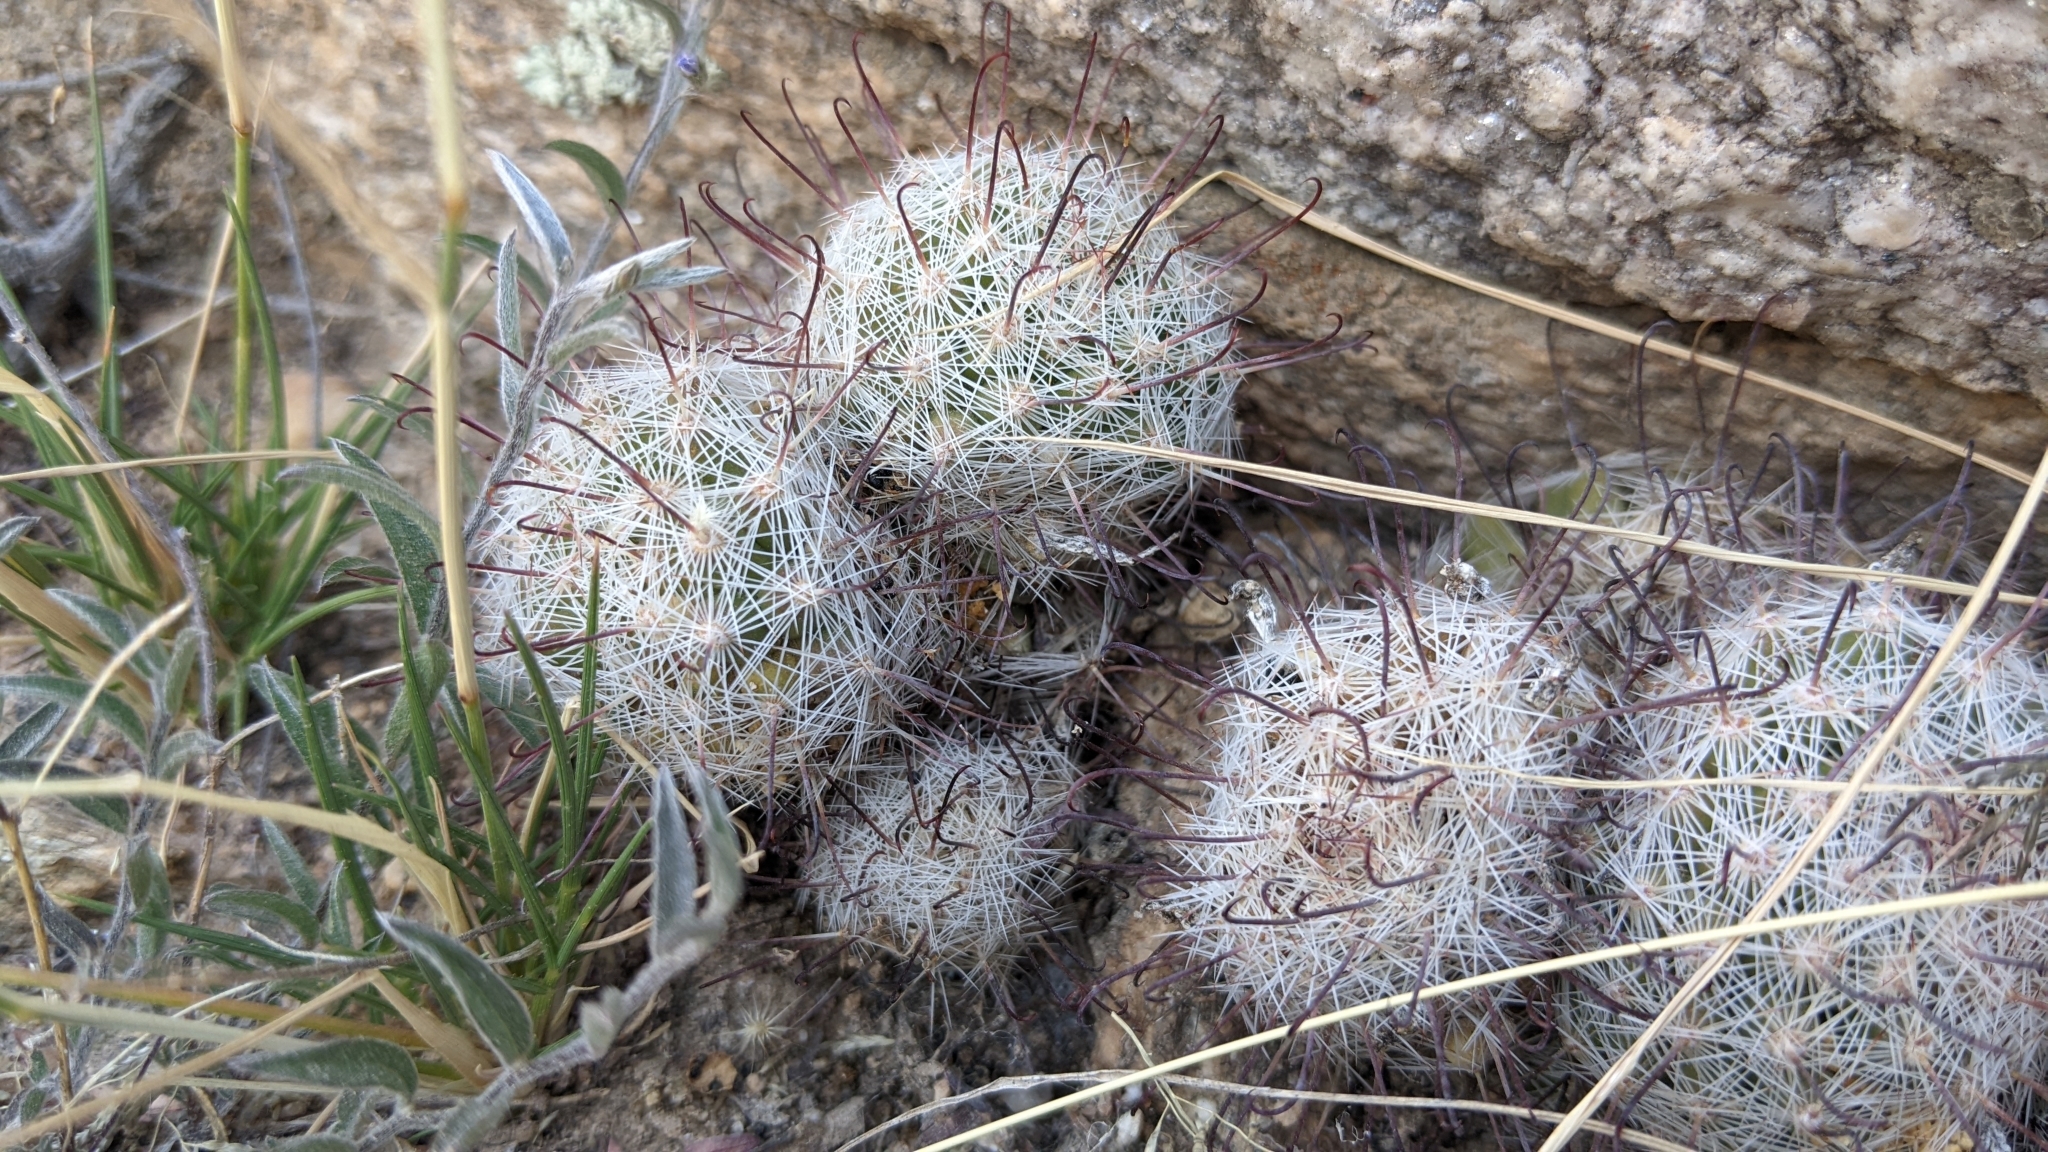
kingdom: Plantae
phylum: Tracheophyta
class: Magnoliopsida
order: Caryophyllales
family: Cactaceae
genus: Cochemiea
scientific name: Cochemiea grahamii
